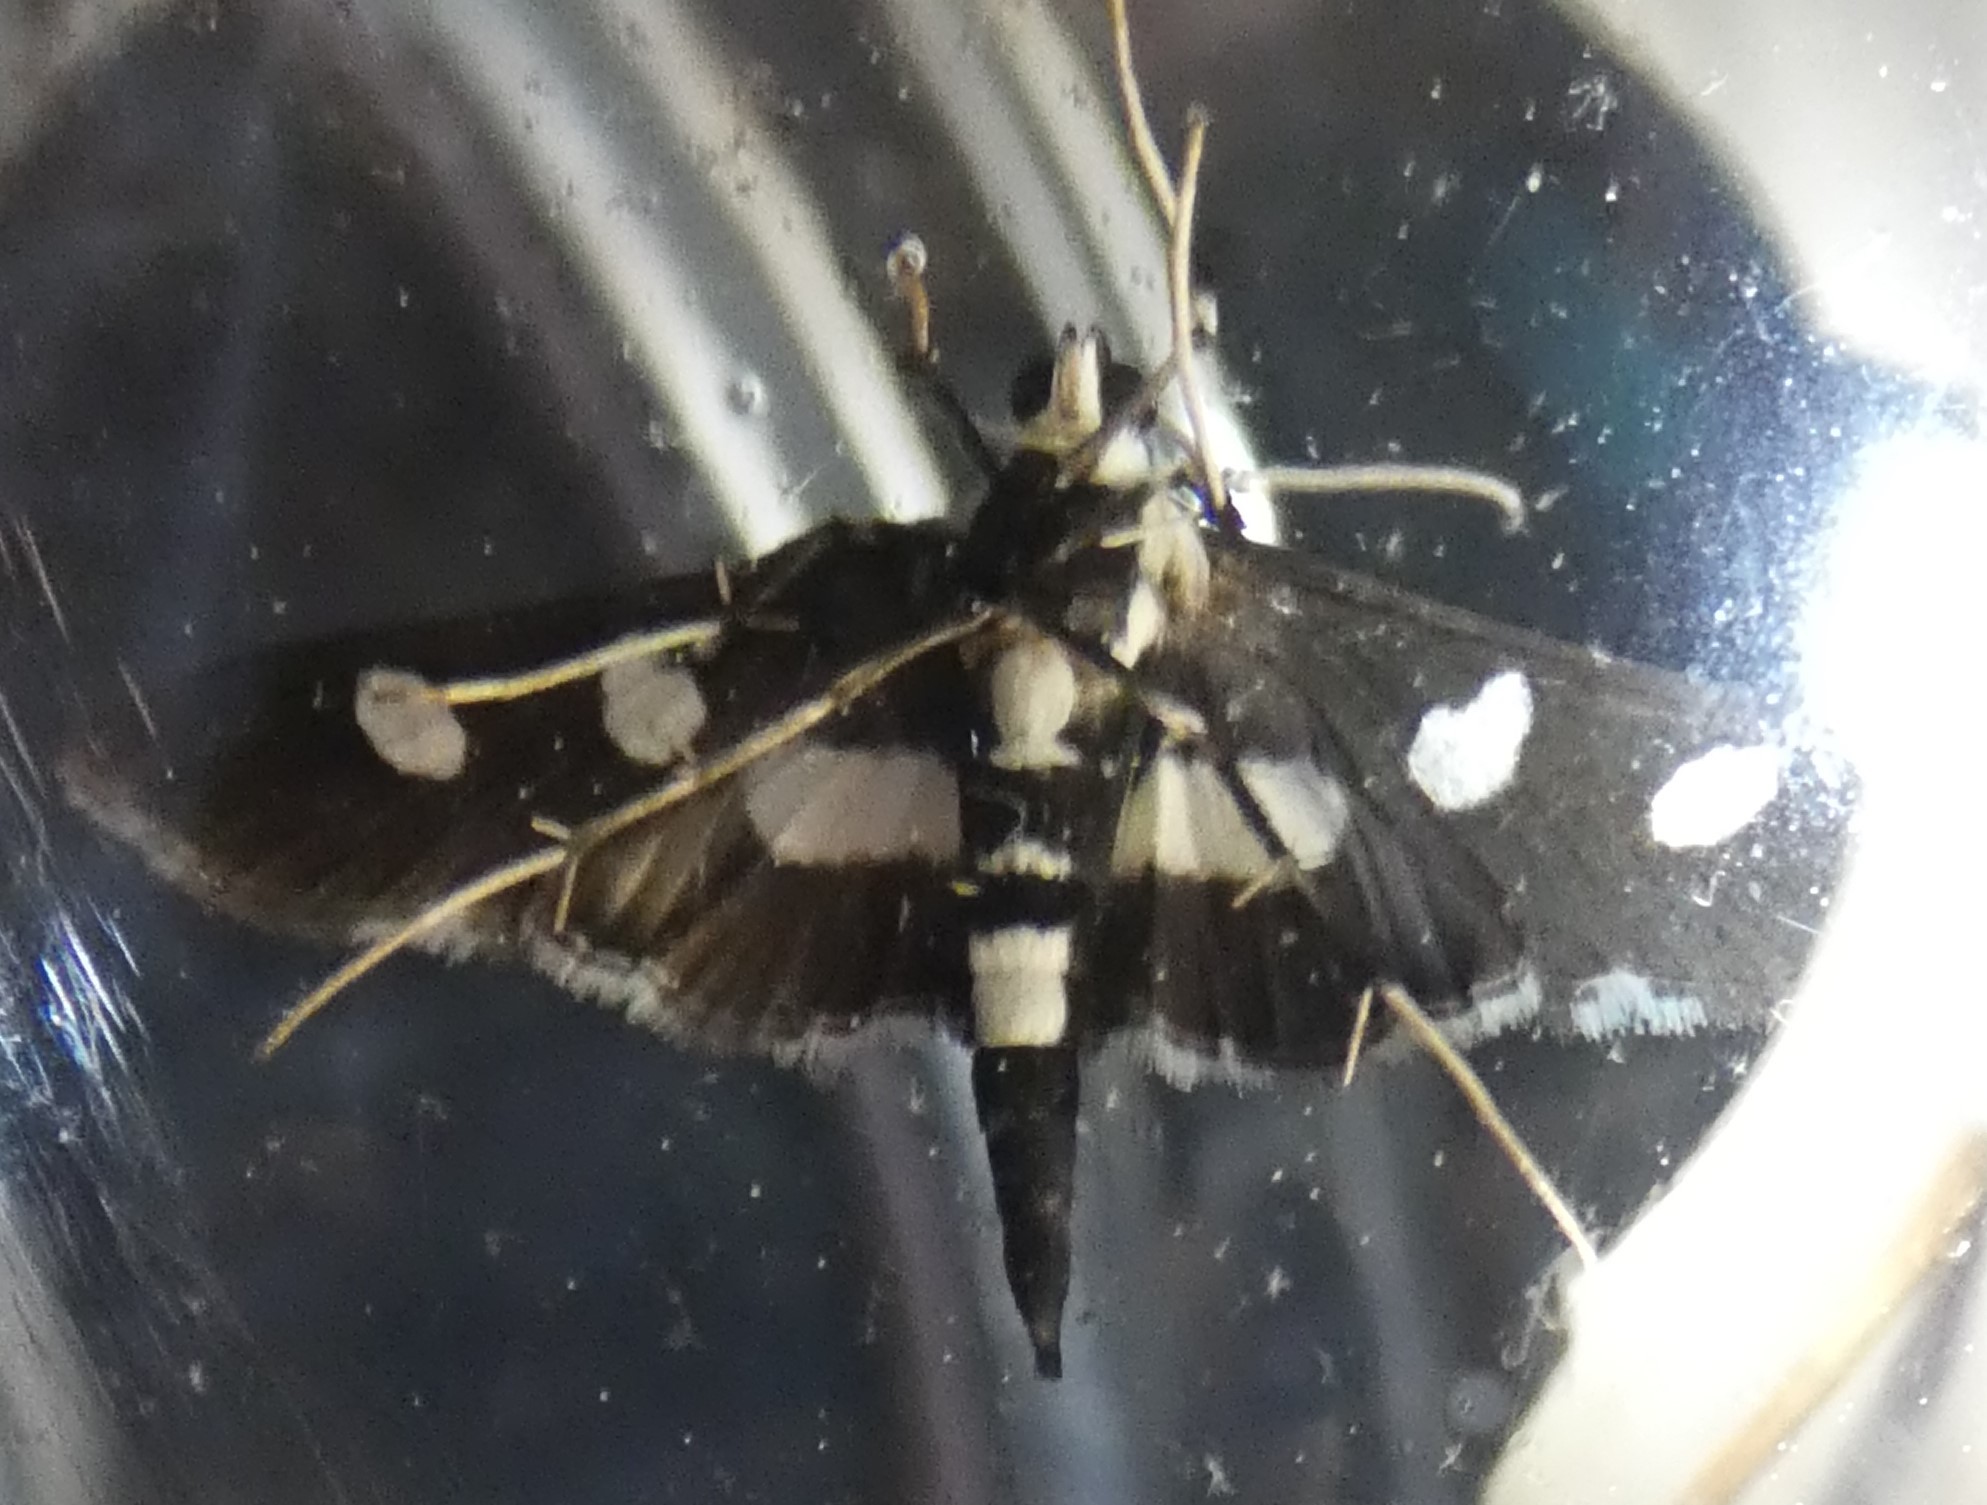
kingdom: Animalia
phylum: Arthropoda
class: Insecta
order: Lepidoptera
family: Crambidae
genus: Desmia
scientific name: Desmia funeralis
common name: Grape leaf folder moth
